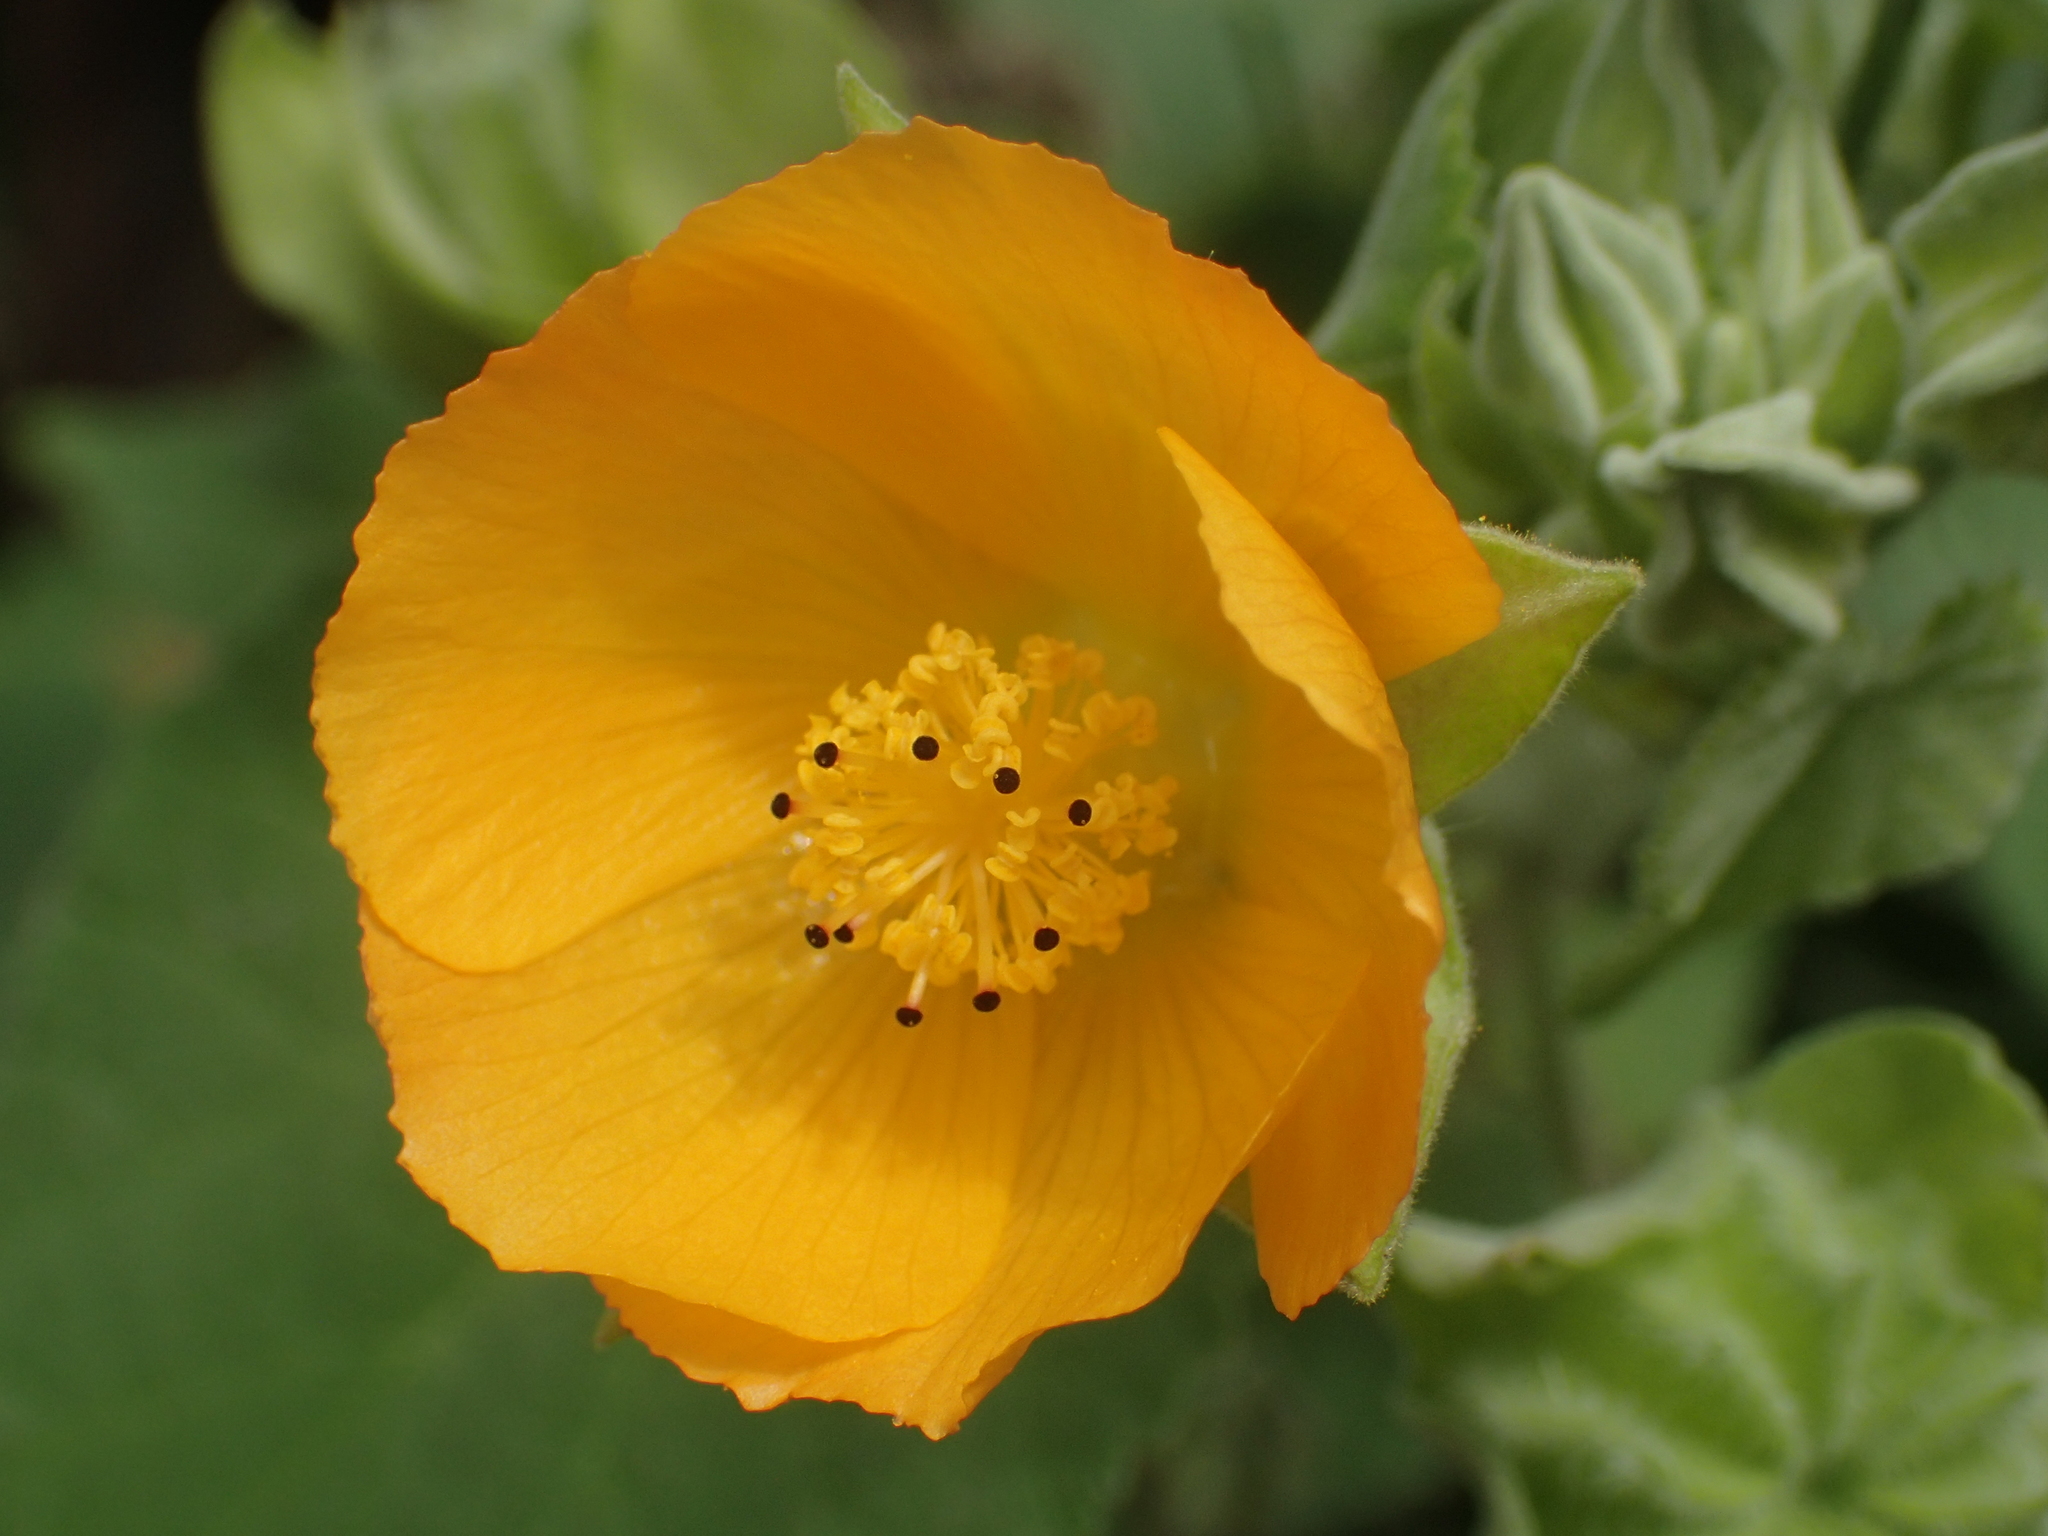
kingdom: Plantae
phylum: Tracheophyta
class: Magnoliopsida
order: Malvales
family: Malvaceae
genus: Abutilon
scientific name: Abutilon grandifolium
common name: Hairy abutilon
